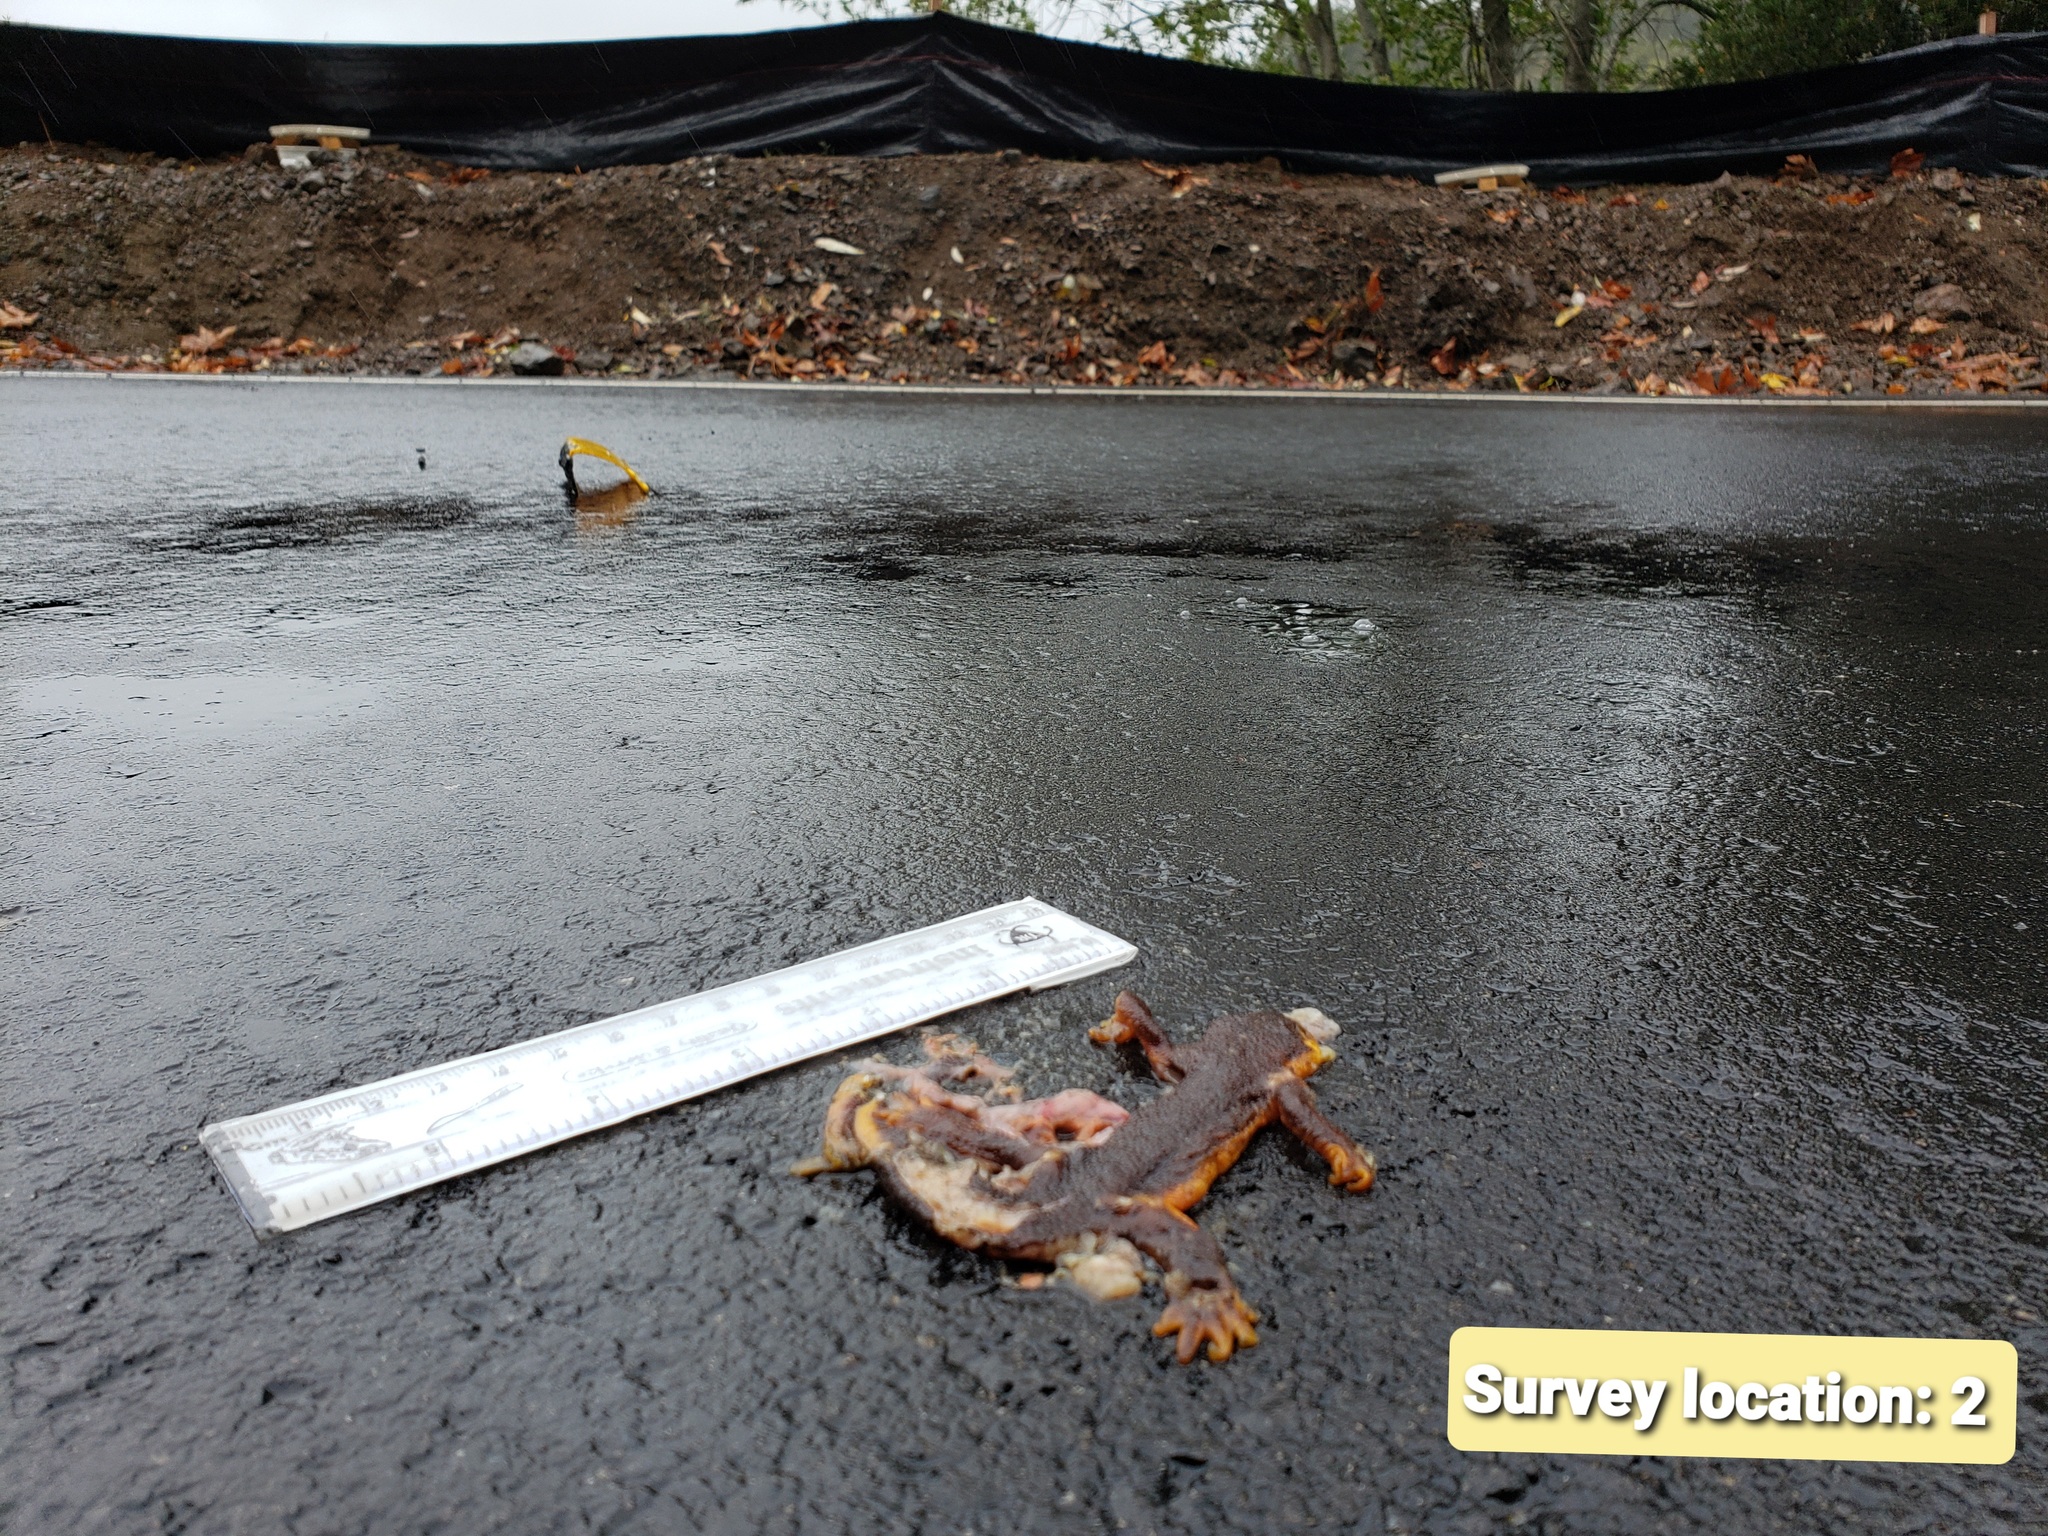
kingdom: Animalia
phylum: Chordata
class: Amphibia
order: Caudata
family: Salamandridae
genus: Taricha
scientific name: Taricha torosa
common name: California newt
